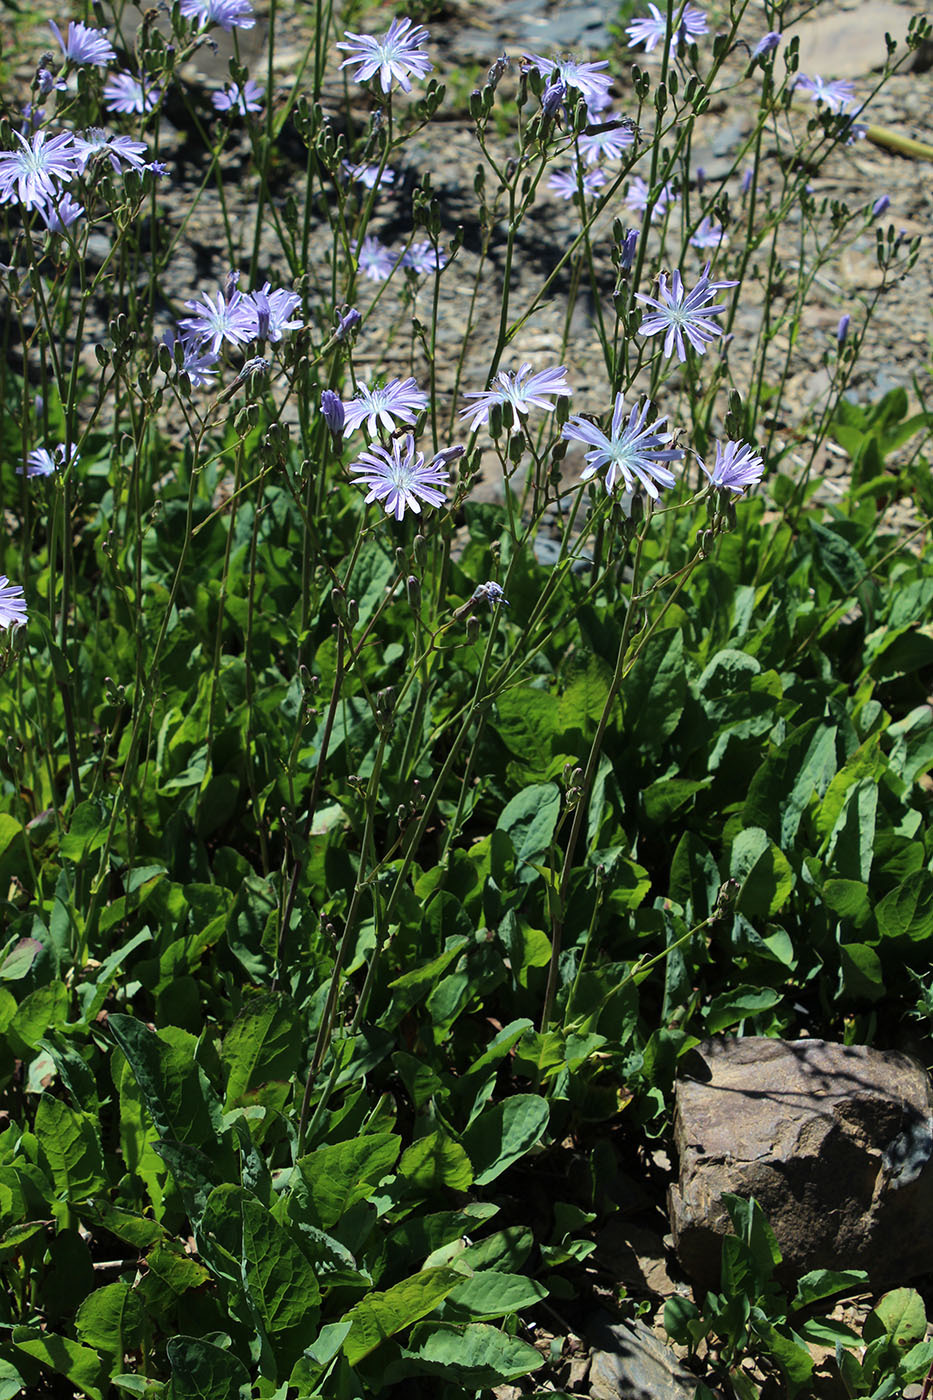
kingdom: Plantae
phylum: Tracheophyta
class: Magnoliopsida
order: Asterales
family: Asteraceae
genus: Lactuca
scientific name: Lactuca racemosa
